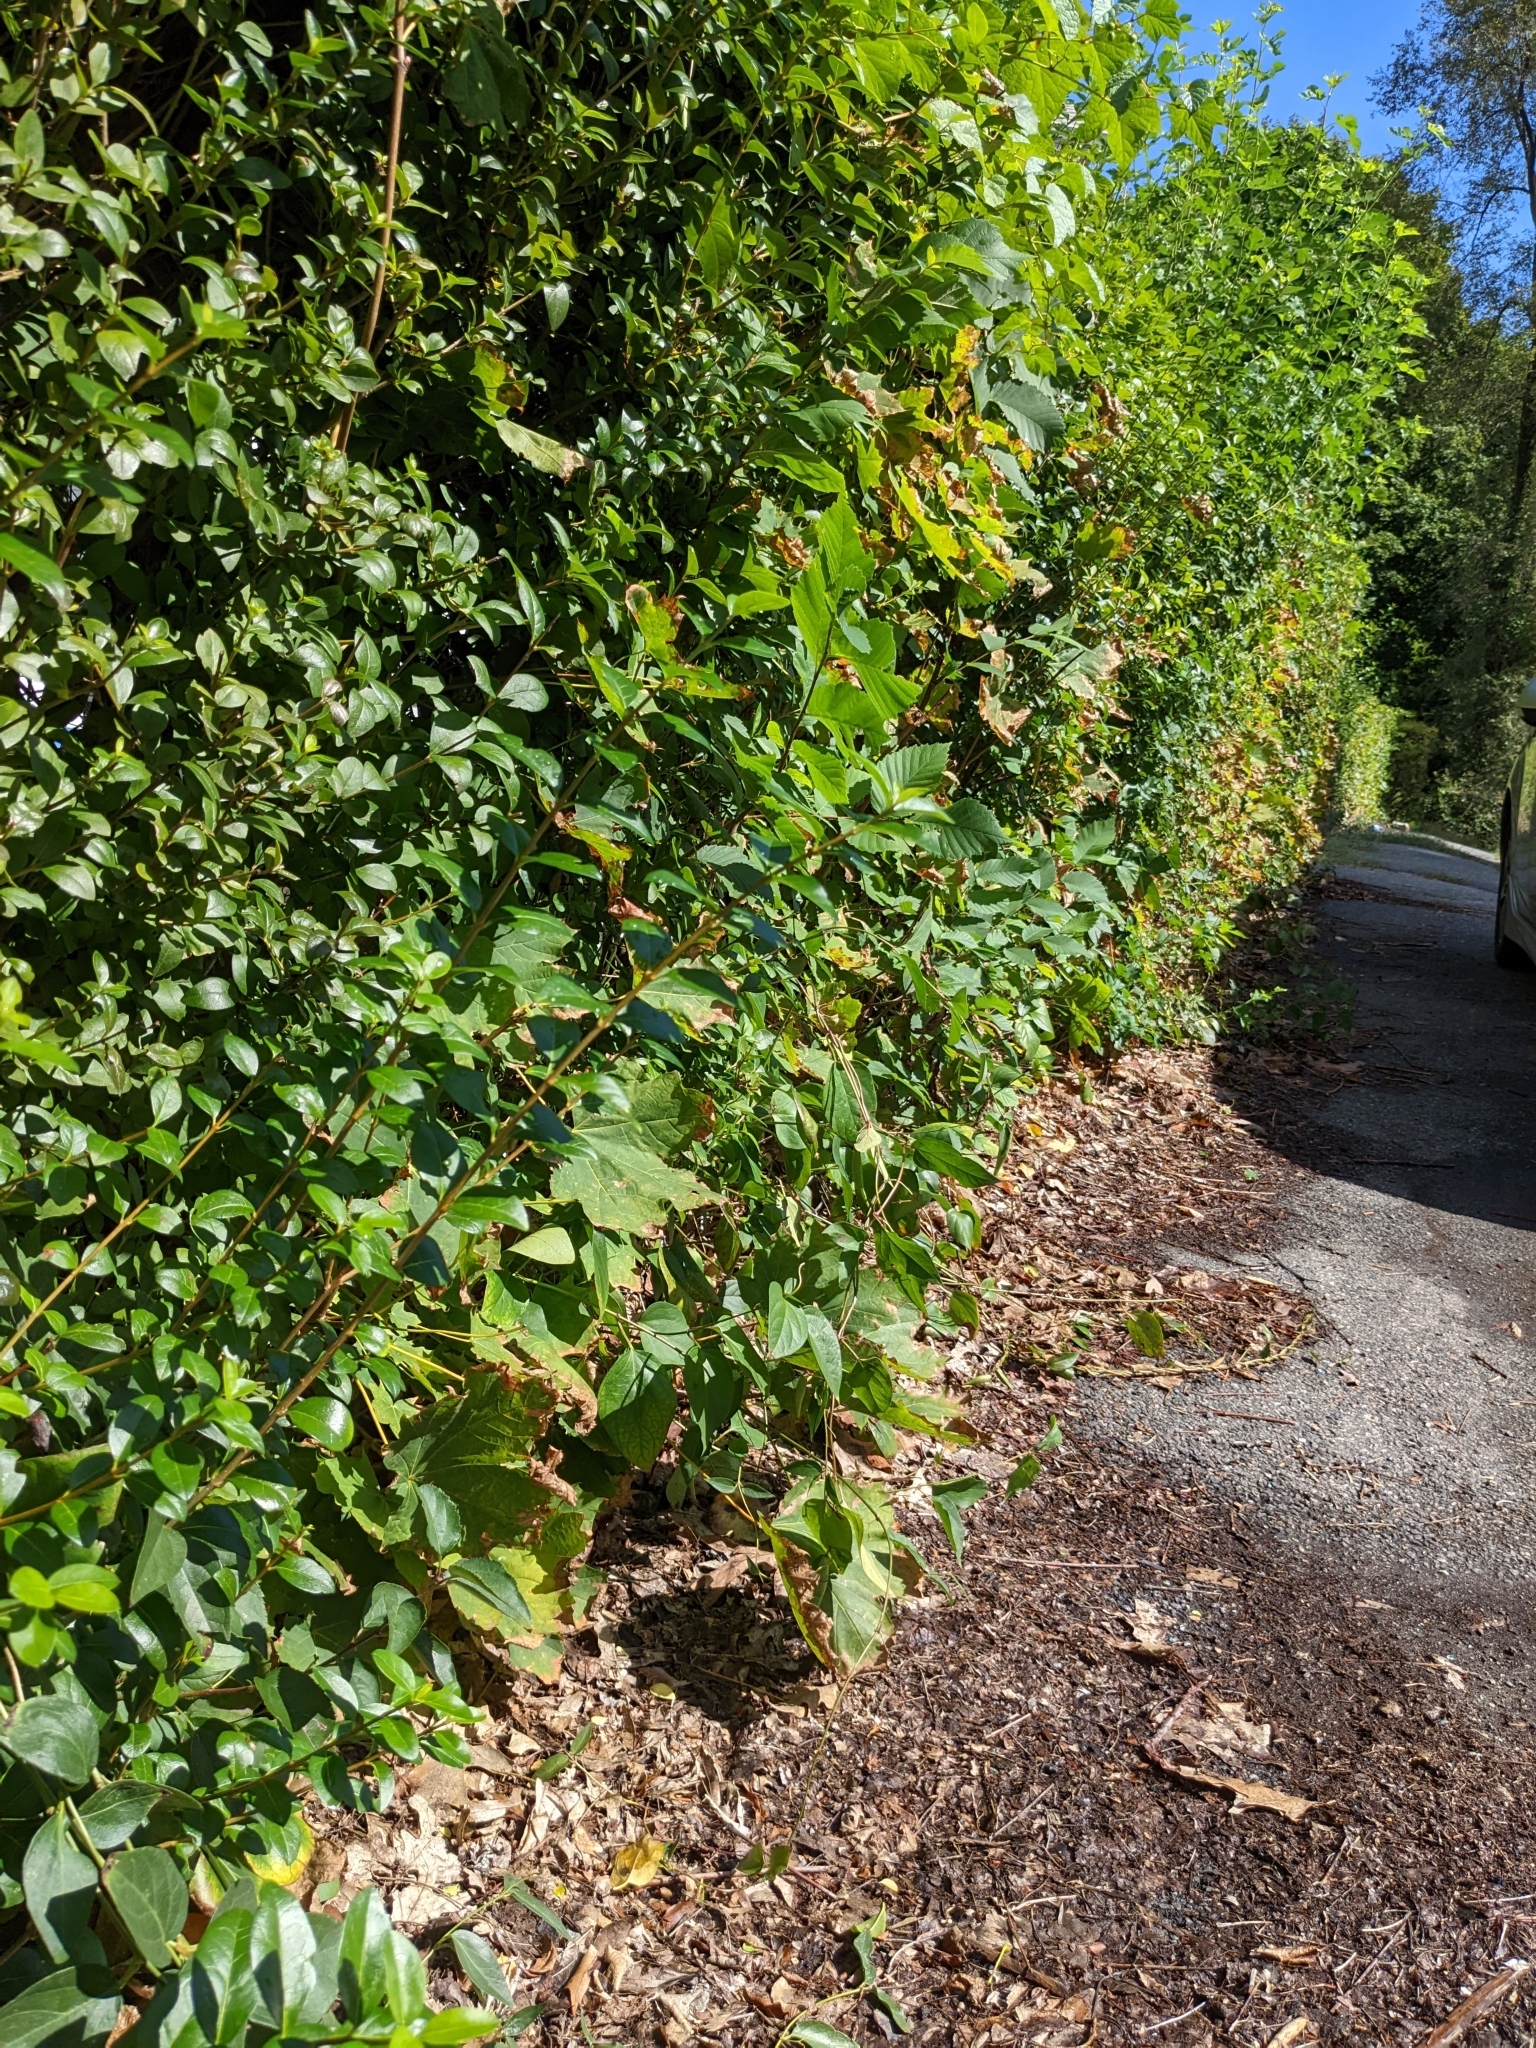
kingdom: Plantae
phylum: Tracheophyta
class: Magnoliopsida
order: Gentianales
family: Apocynaceae
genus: Vincetoxicum
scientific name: Vincetoxicum nigrum
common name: Black swallow-wort
